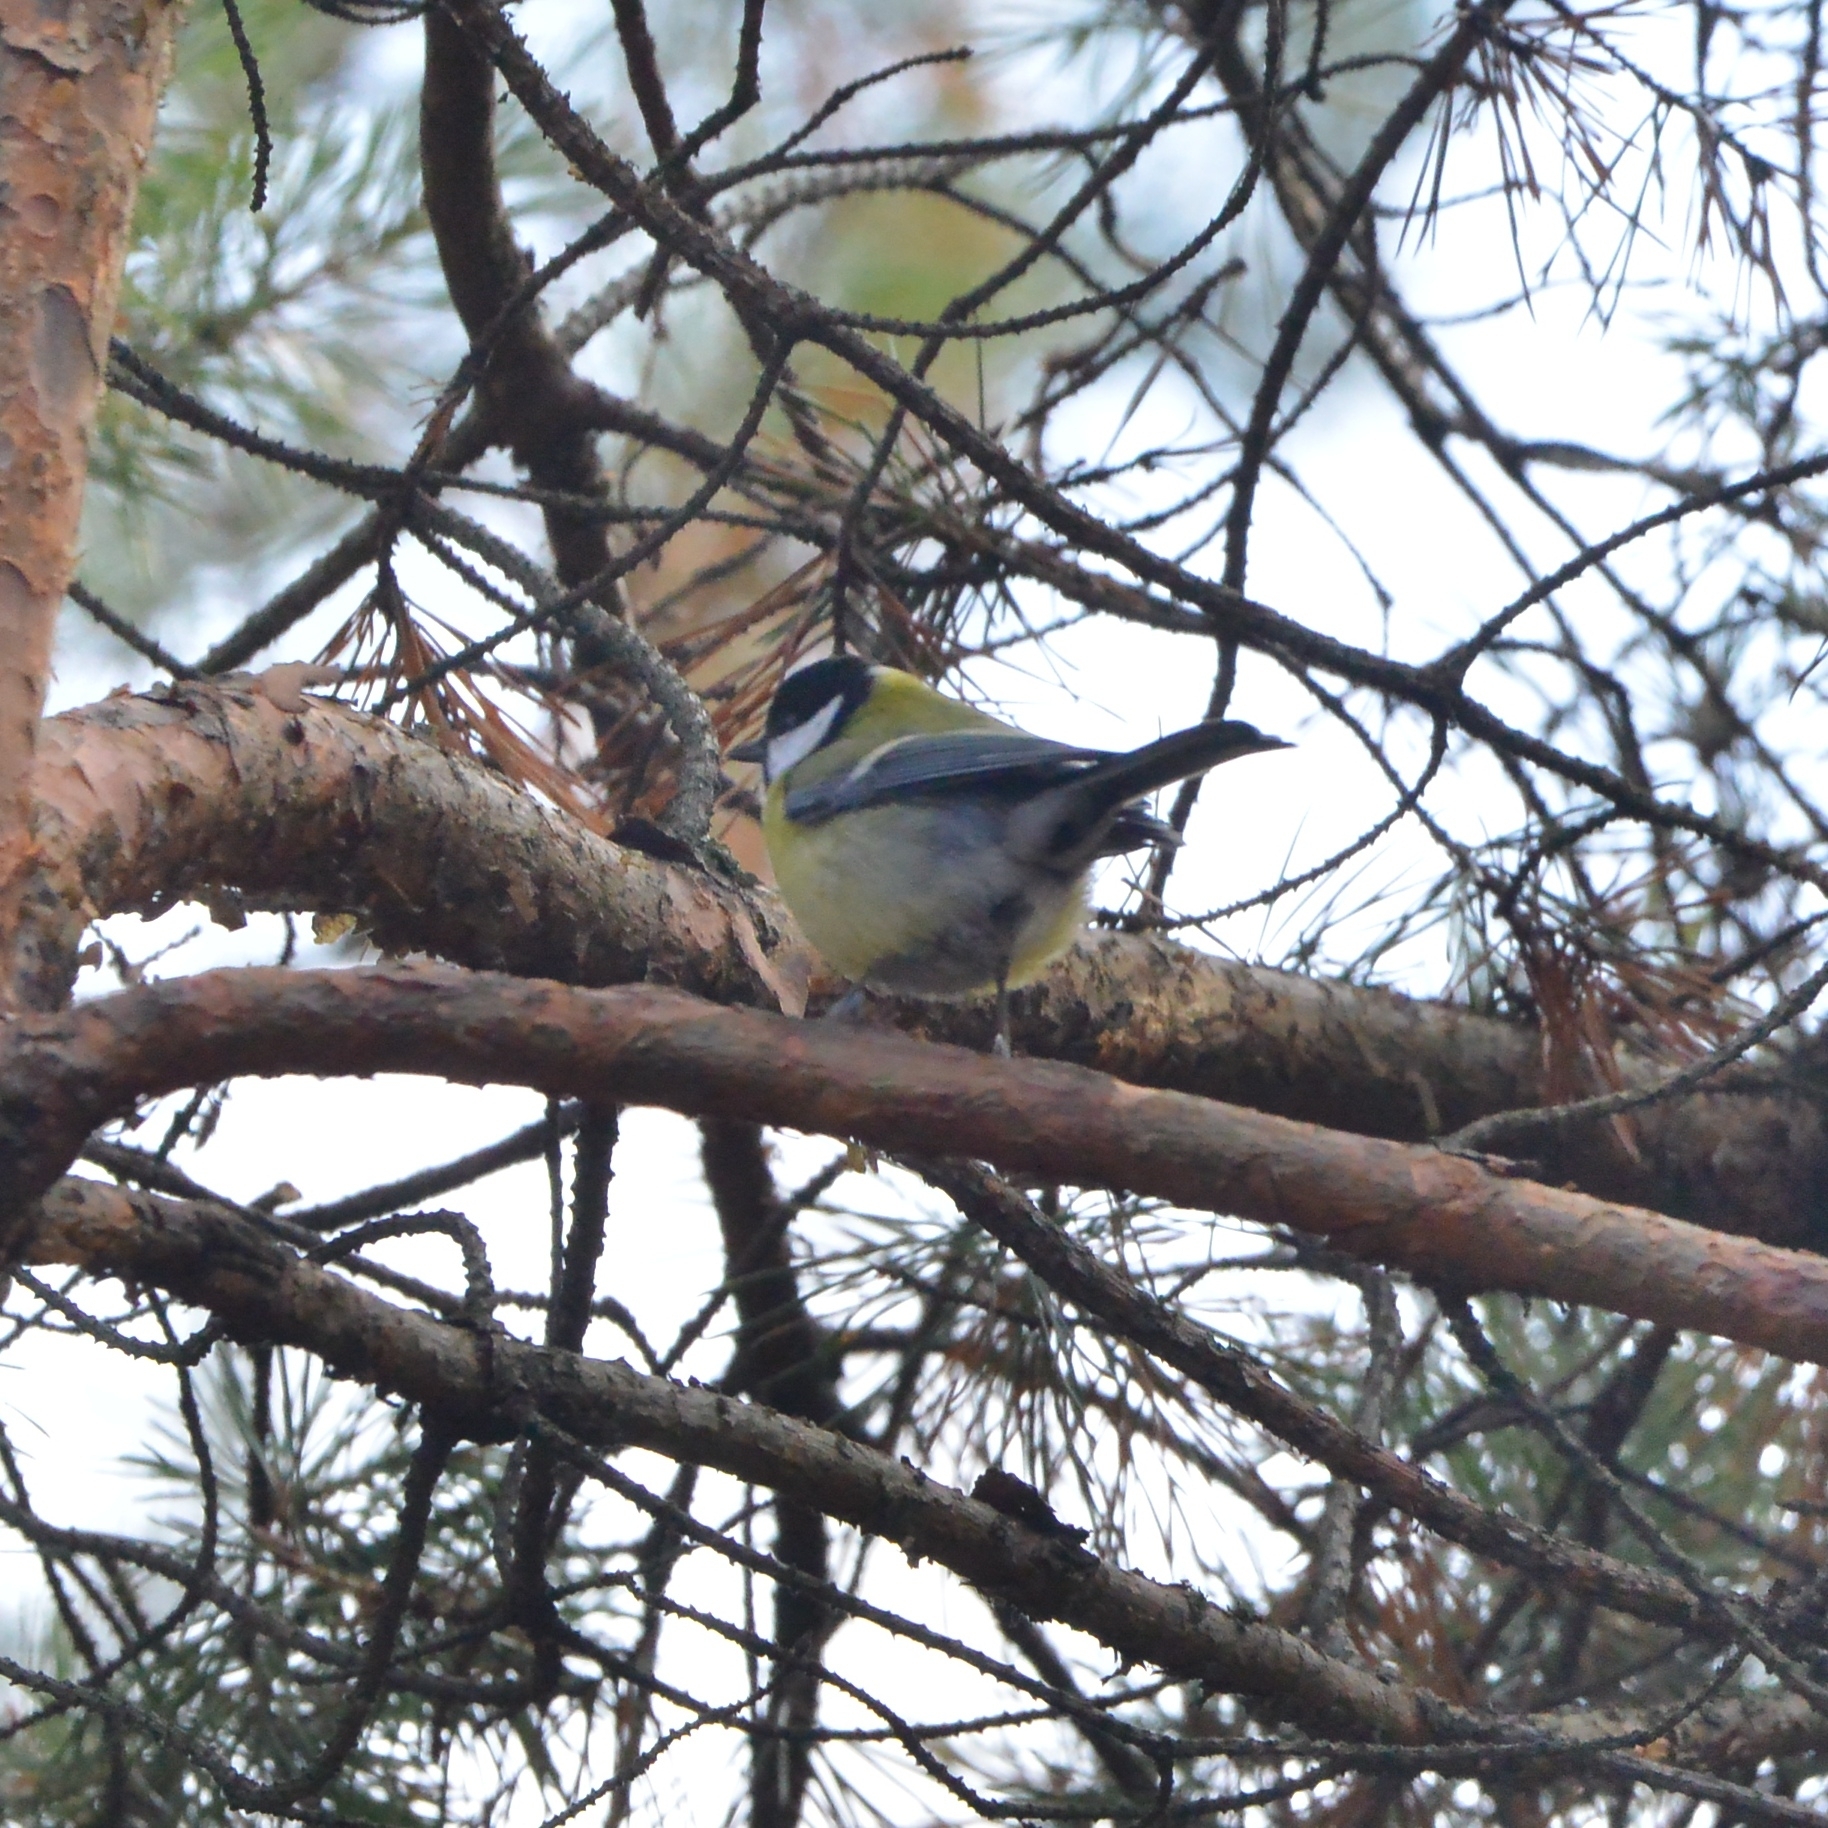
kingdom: Animalia
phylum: Chordata
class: Aves
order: Passeriformes
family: Paridae
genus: Parus
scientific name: Parus major
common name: Great tit
